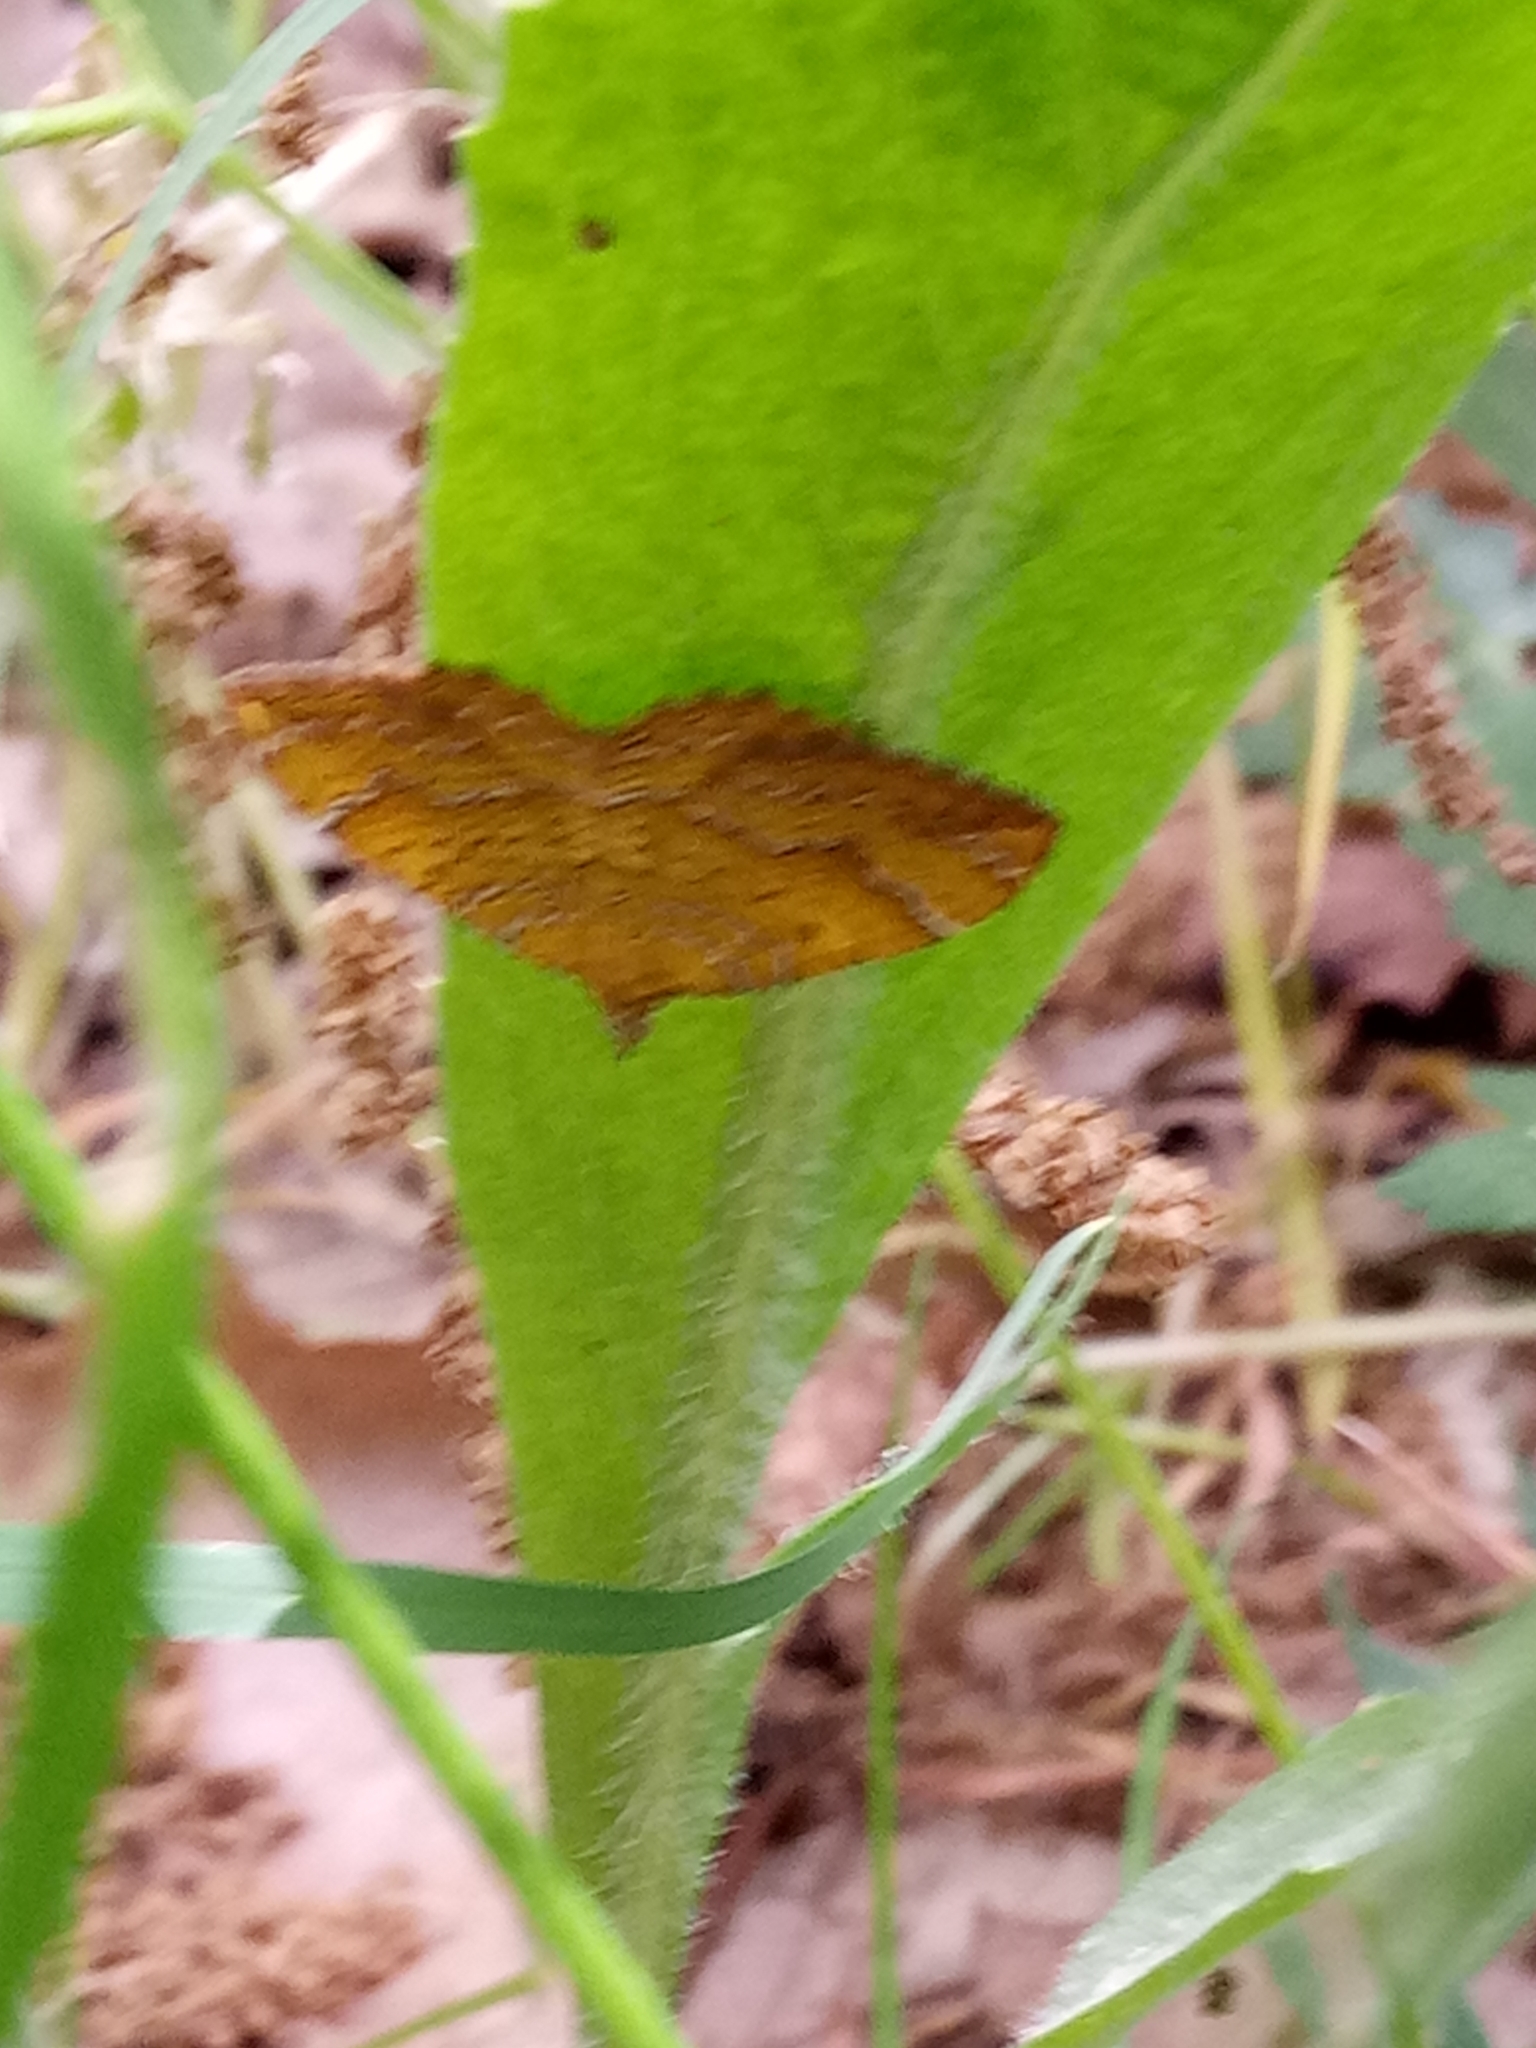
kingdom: Animalia
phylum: Arthropoda
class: Insecta
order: Lepidoptera
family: Geometridae
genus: Camptogramma
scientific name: Camptogramma bilineata
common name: Yellow shell
